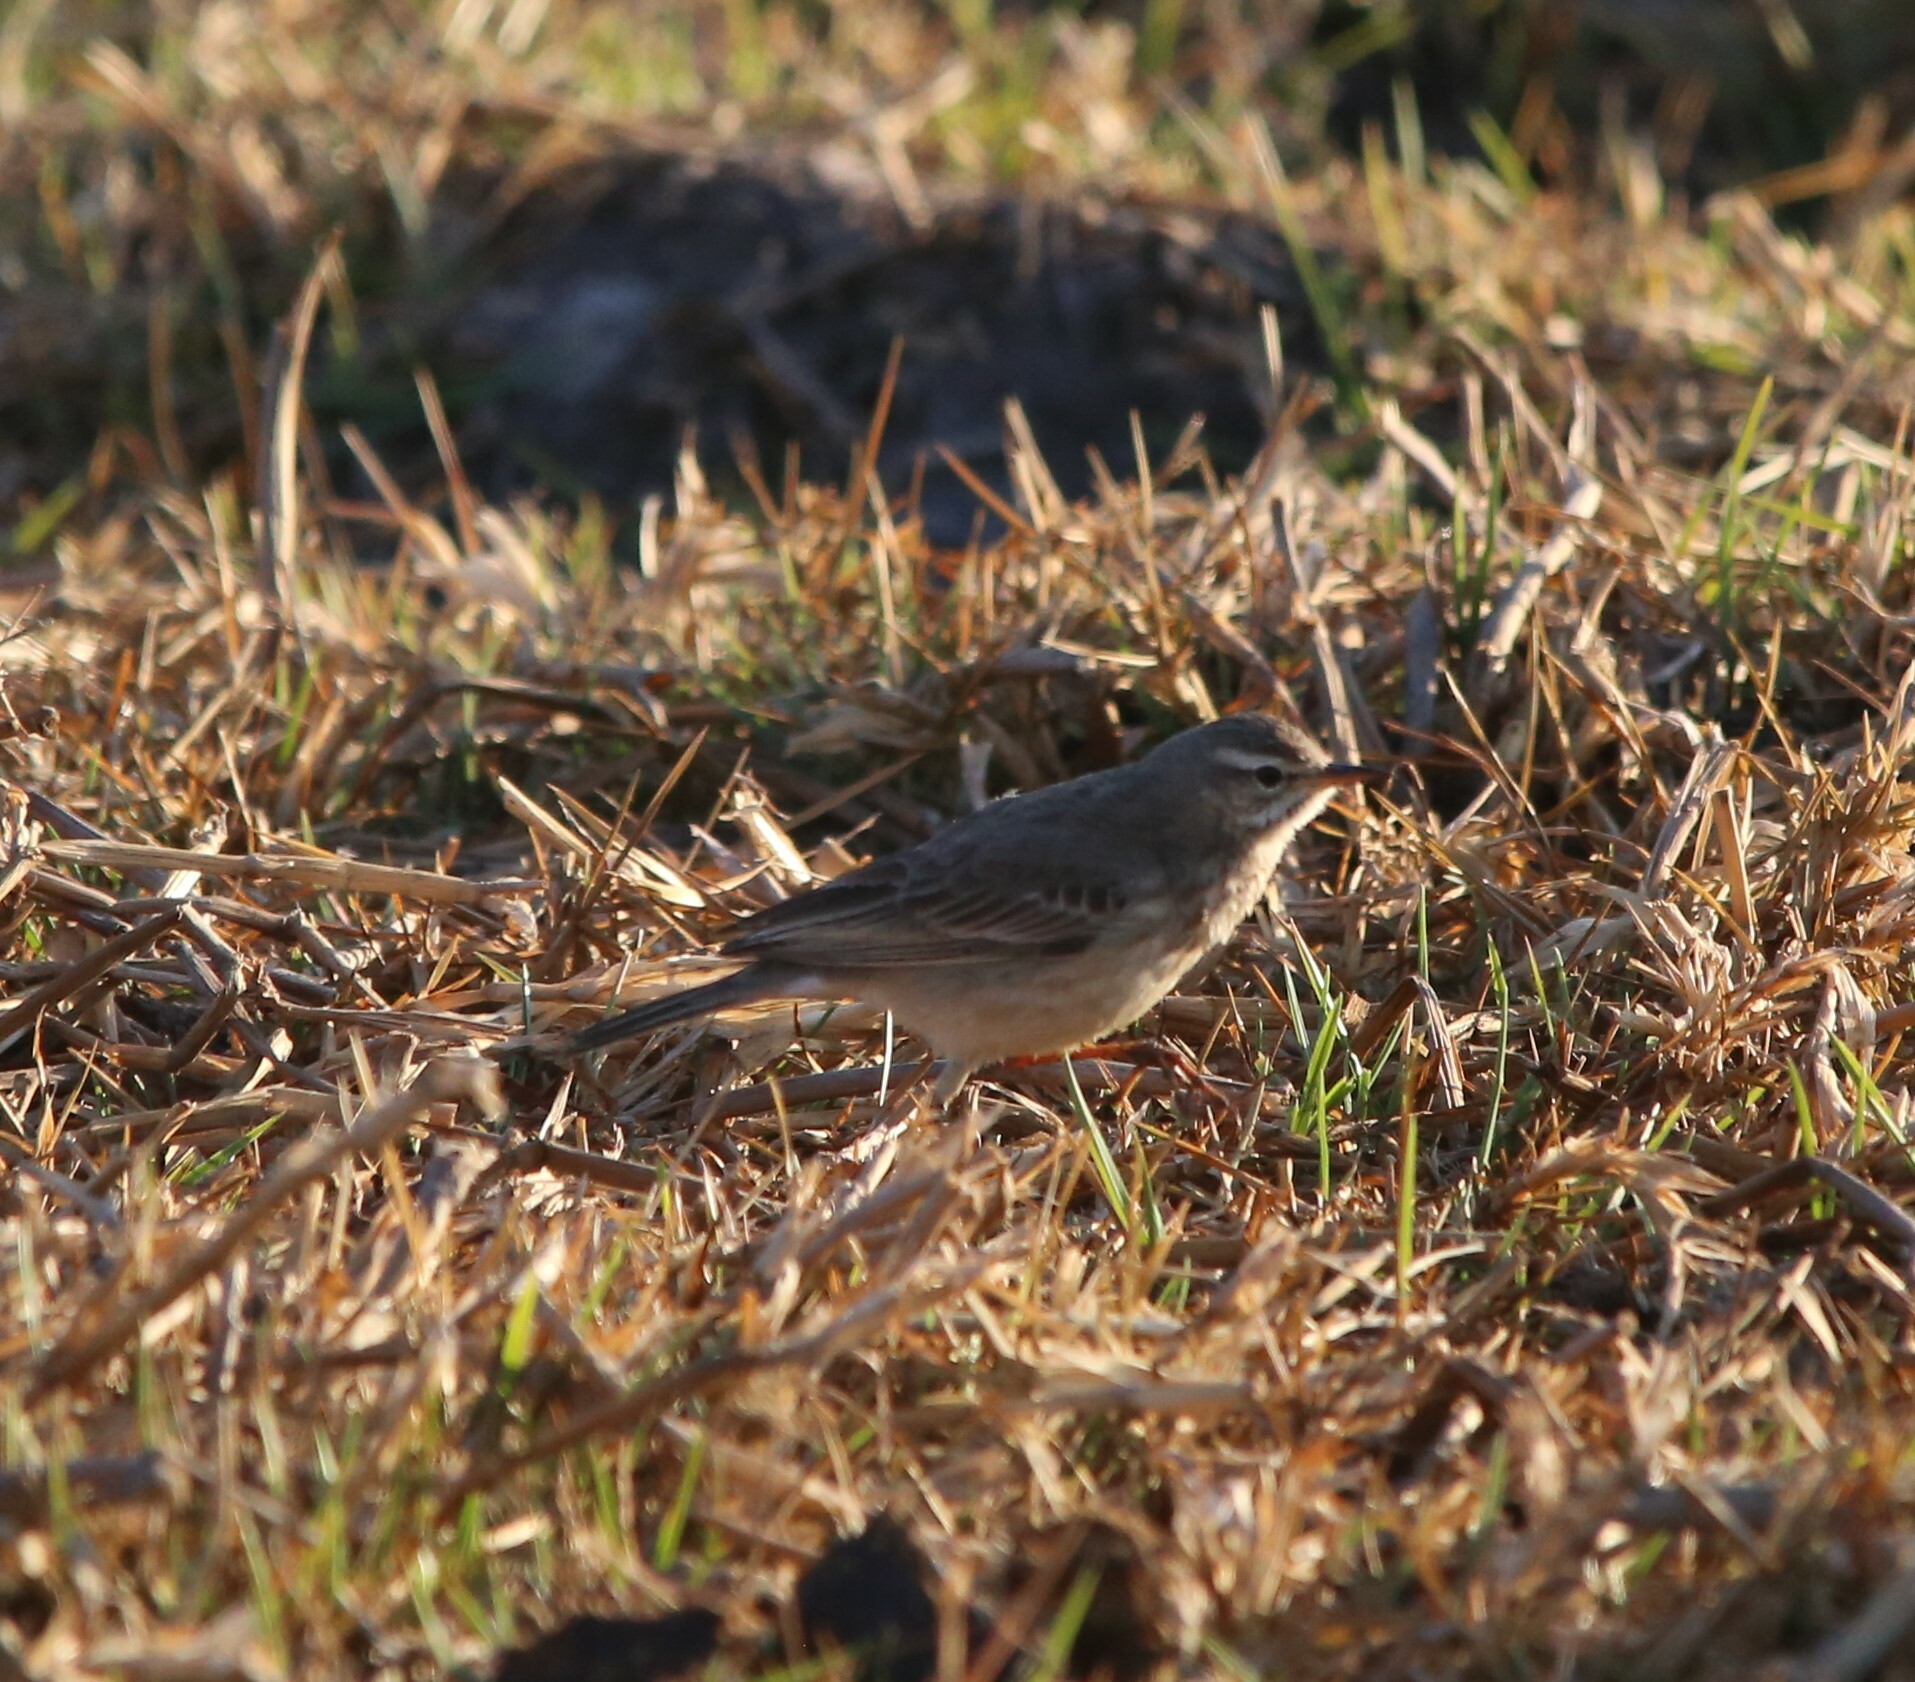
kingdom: Animalia
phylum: Chordata
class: Aves
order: Passeriformes
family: Motacillidae
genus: Anthus
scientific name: Anthus leucophrys
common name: Plain-backed pipit
